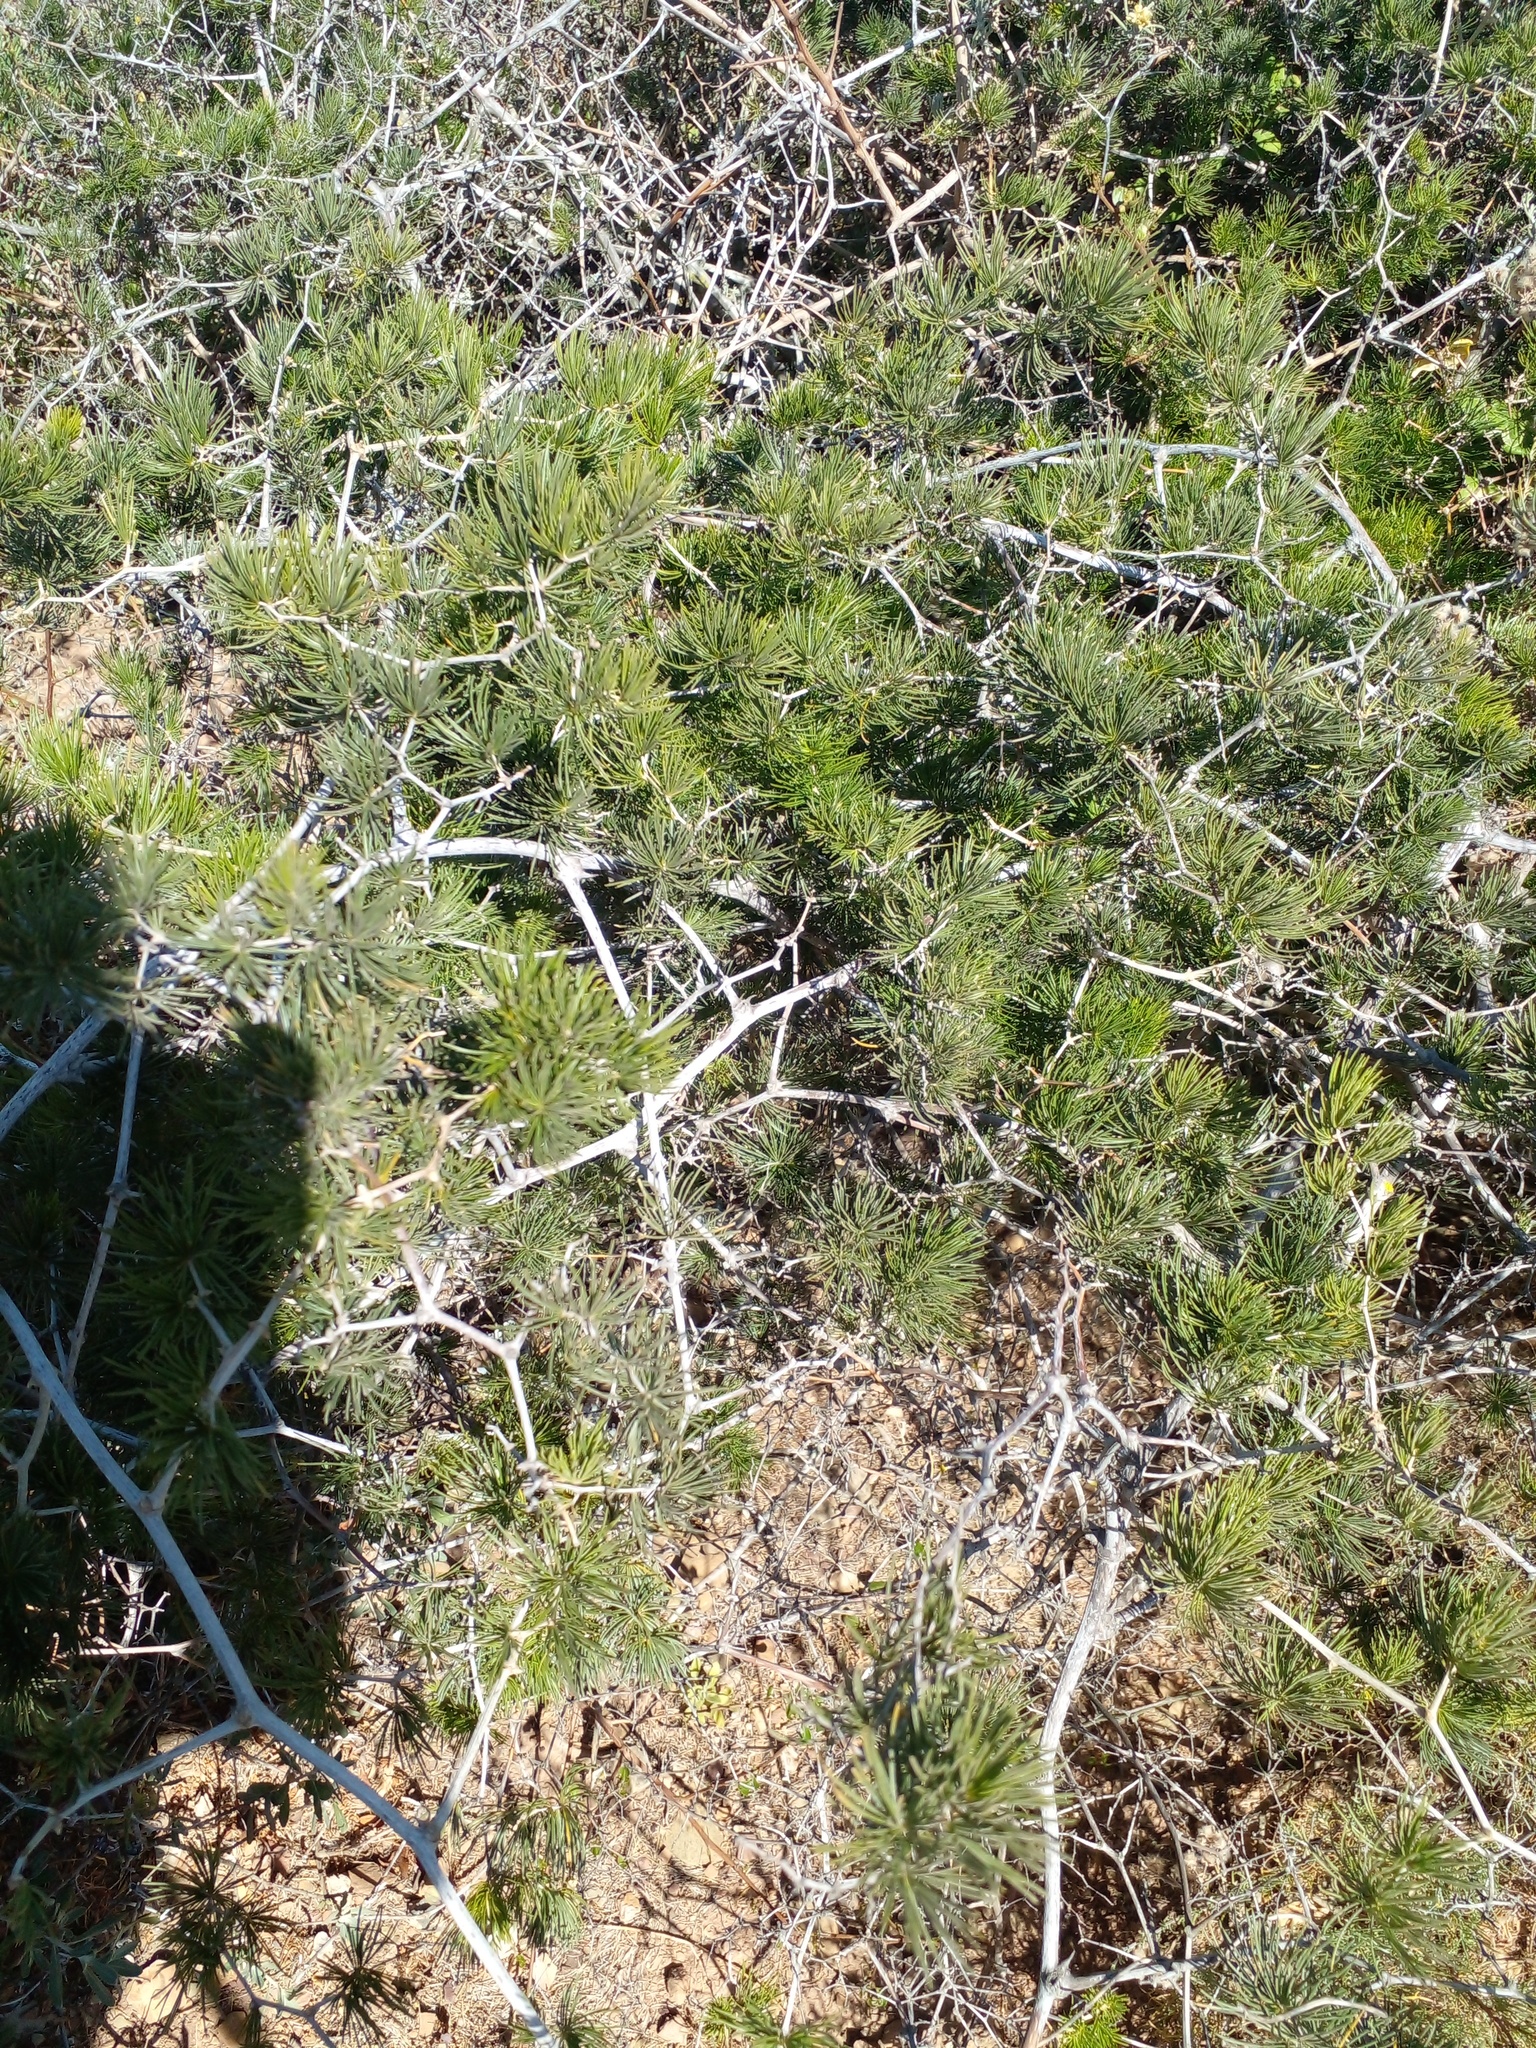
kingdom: Plantae
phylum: Tracheophyta
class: Liliopsida
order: Asparagales
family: Asparagaceae
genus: Asparagus
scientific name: Asparagus retrofractus
